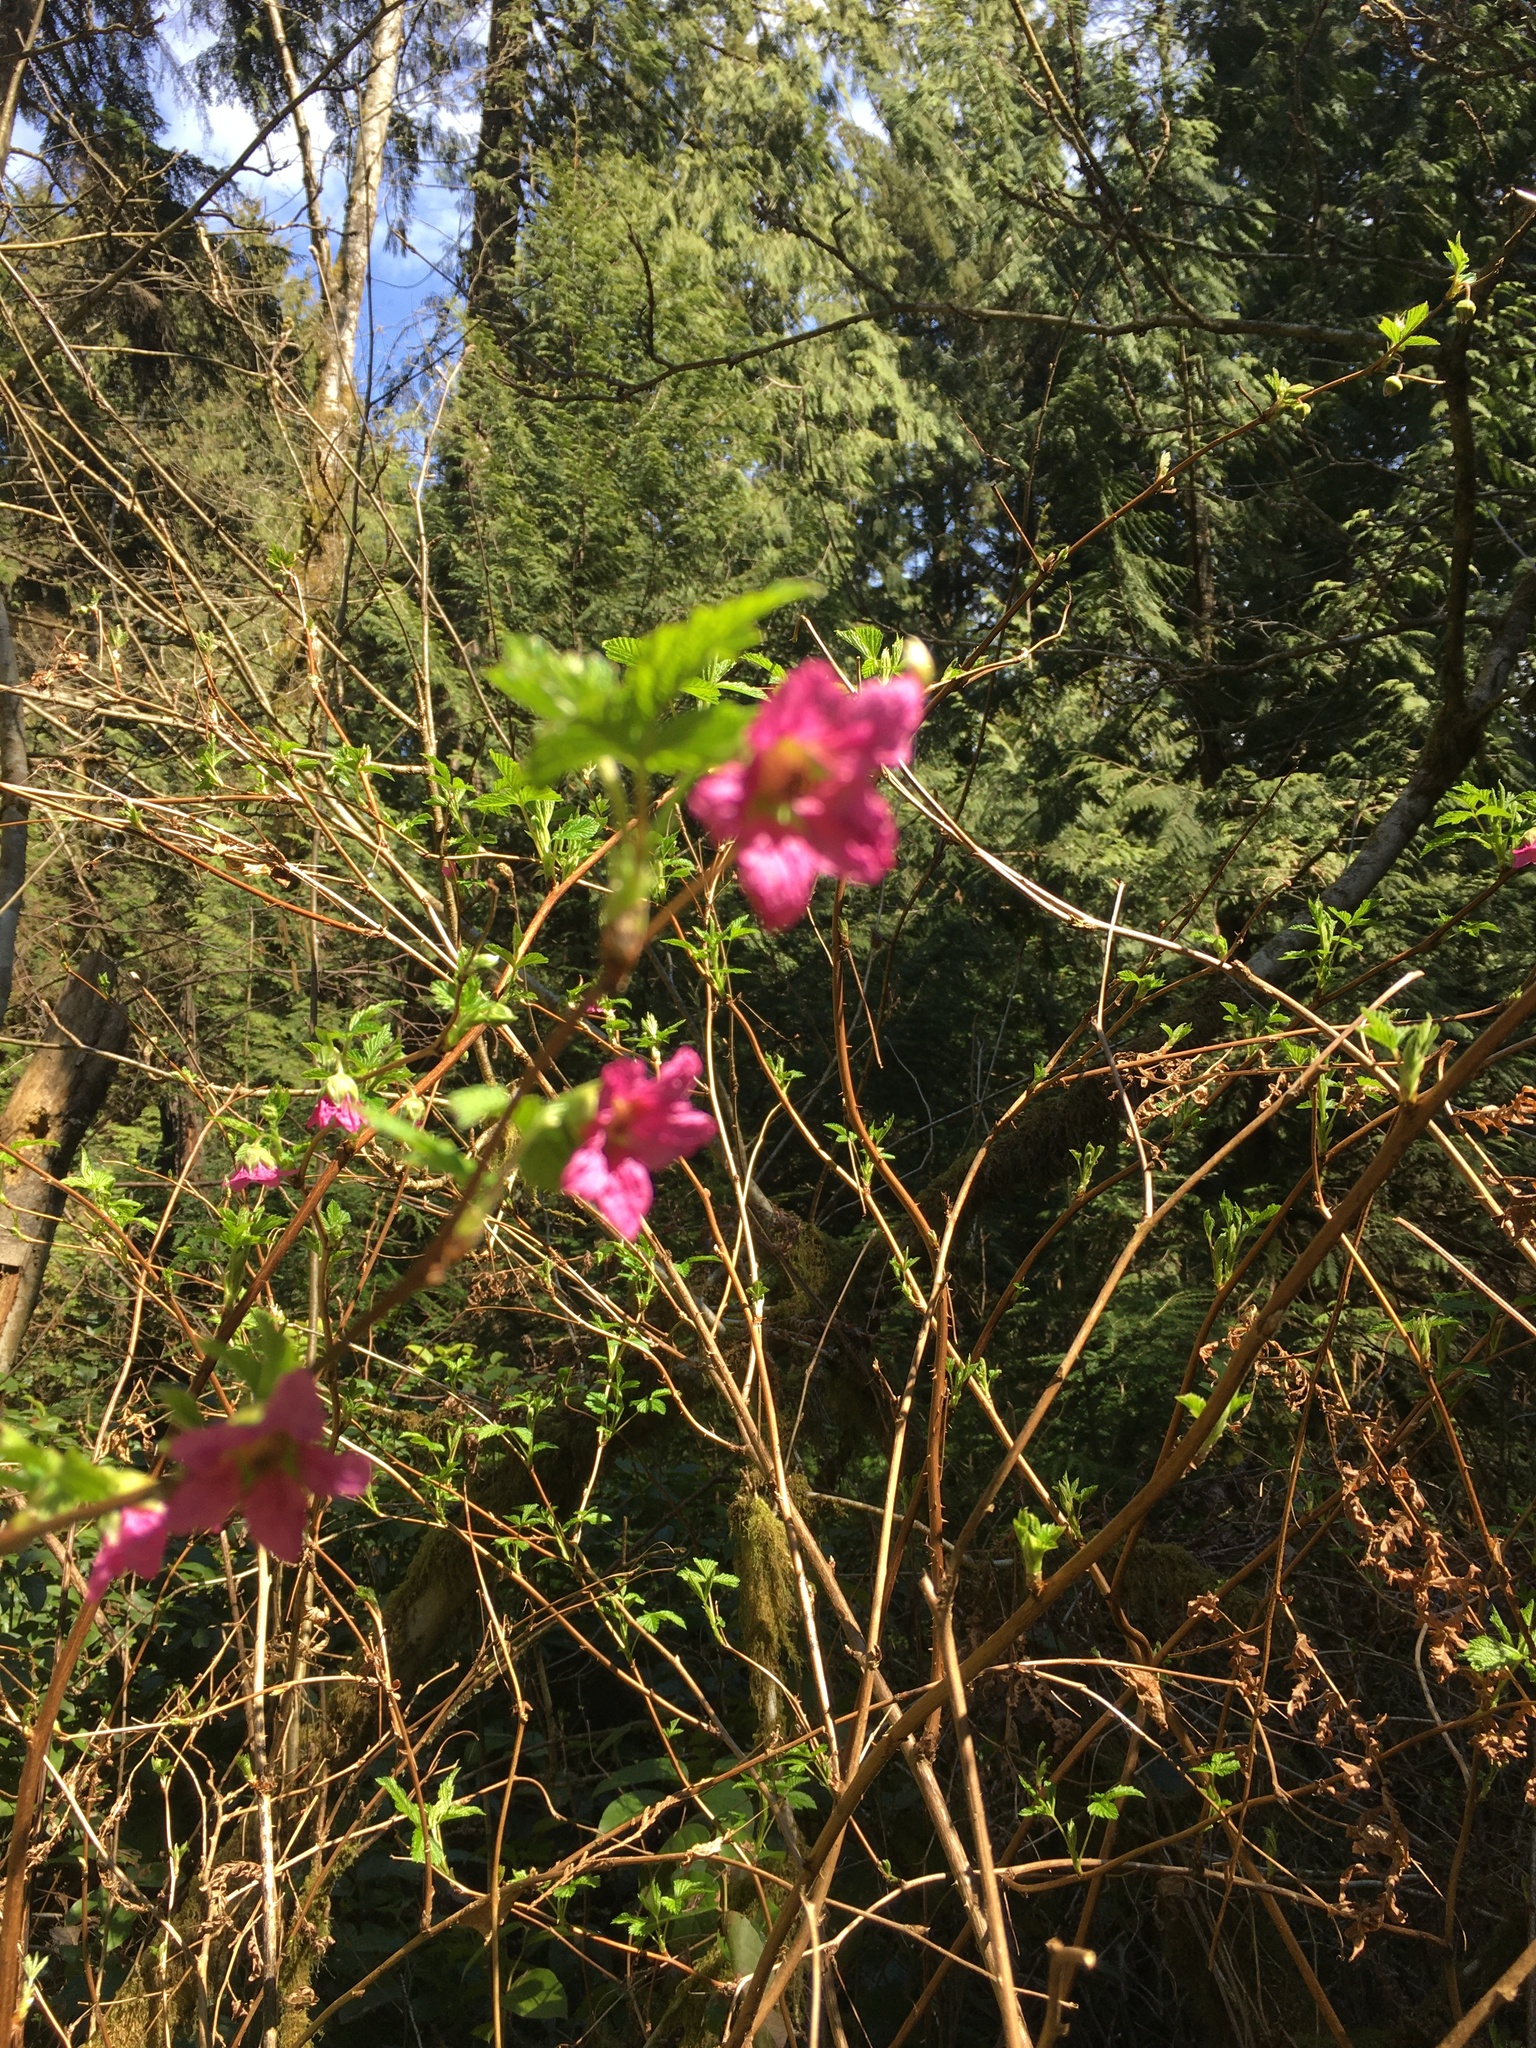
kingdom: Plantae
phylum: Tracheophyta
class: Magnoliopsida
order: Rosales
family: Rosaceae
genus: Rubus
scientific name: Rubus spectabilis
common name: Salmonberry
